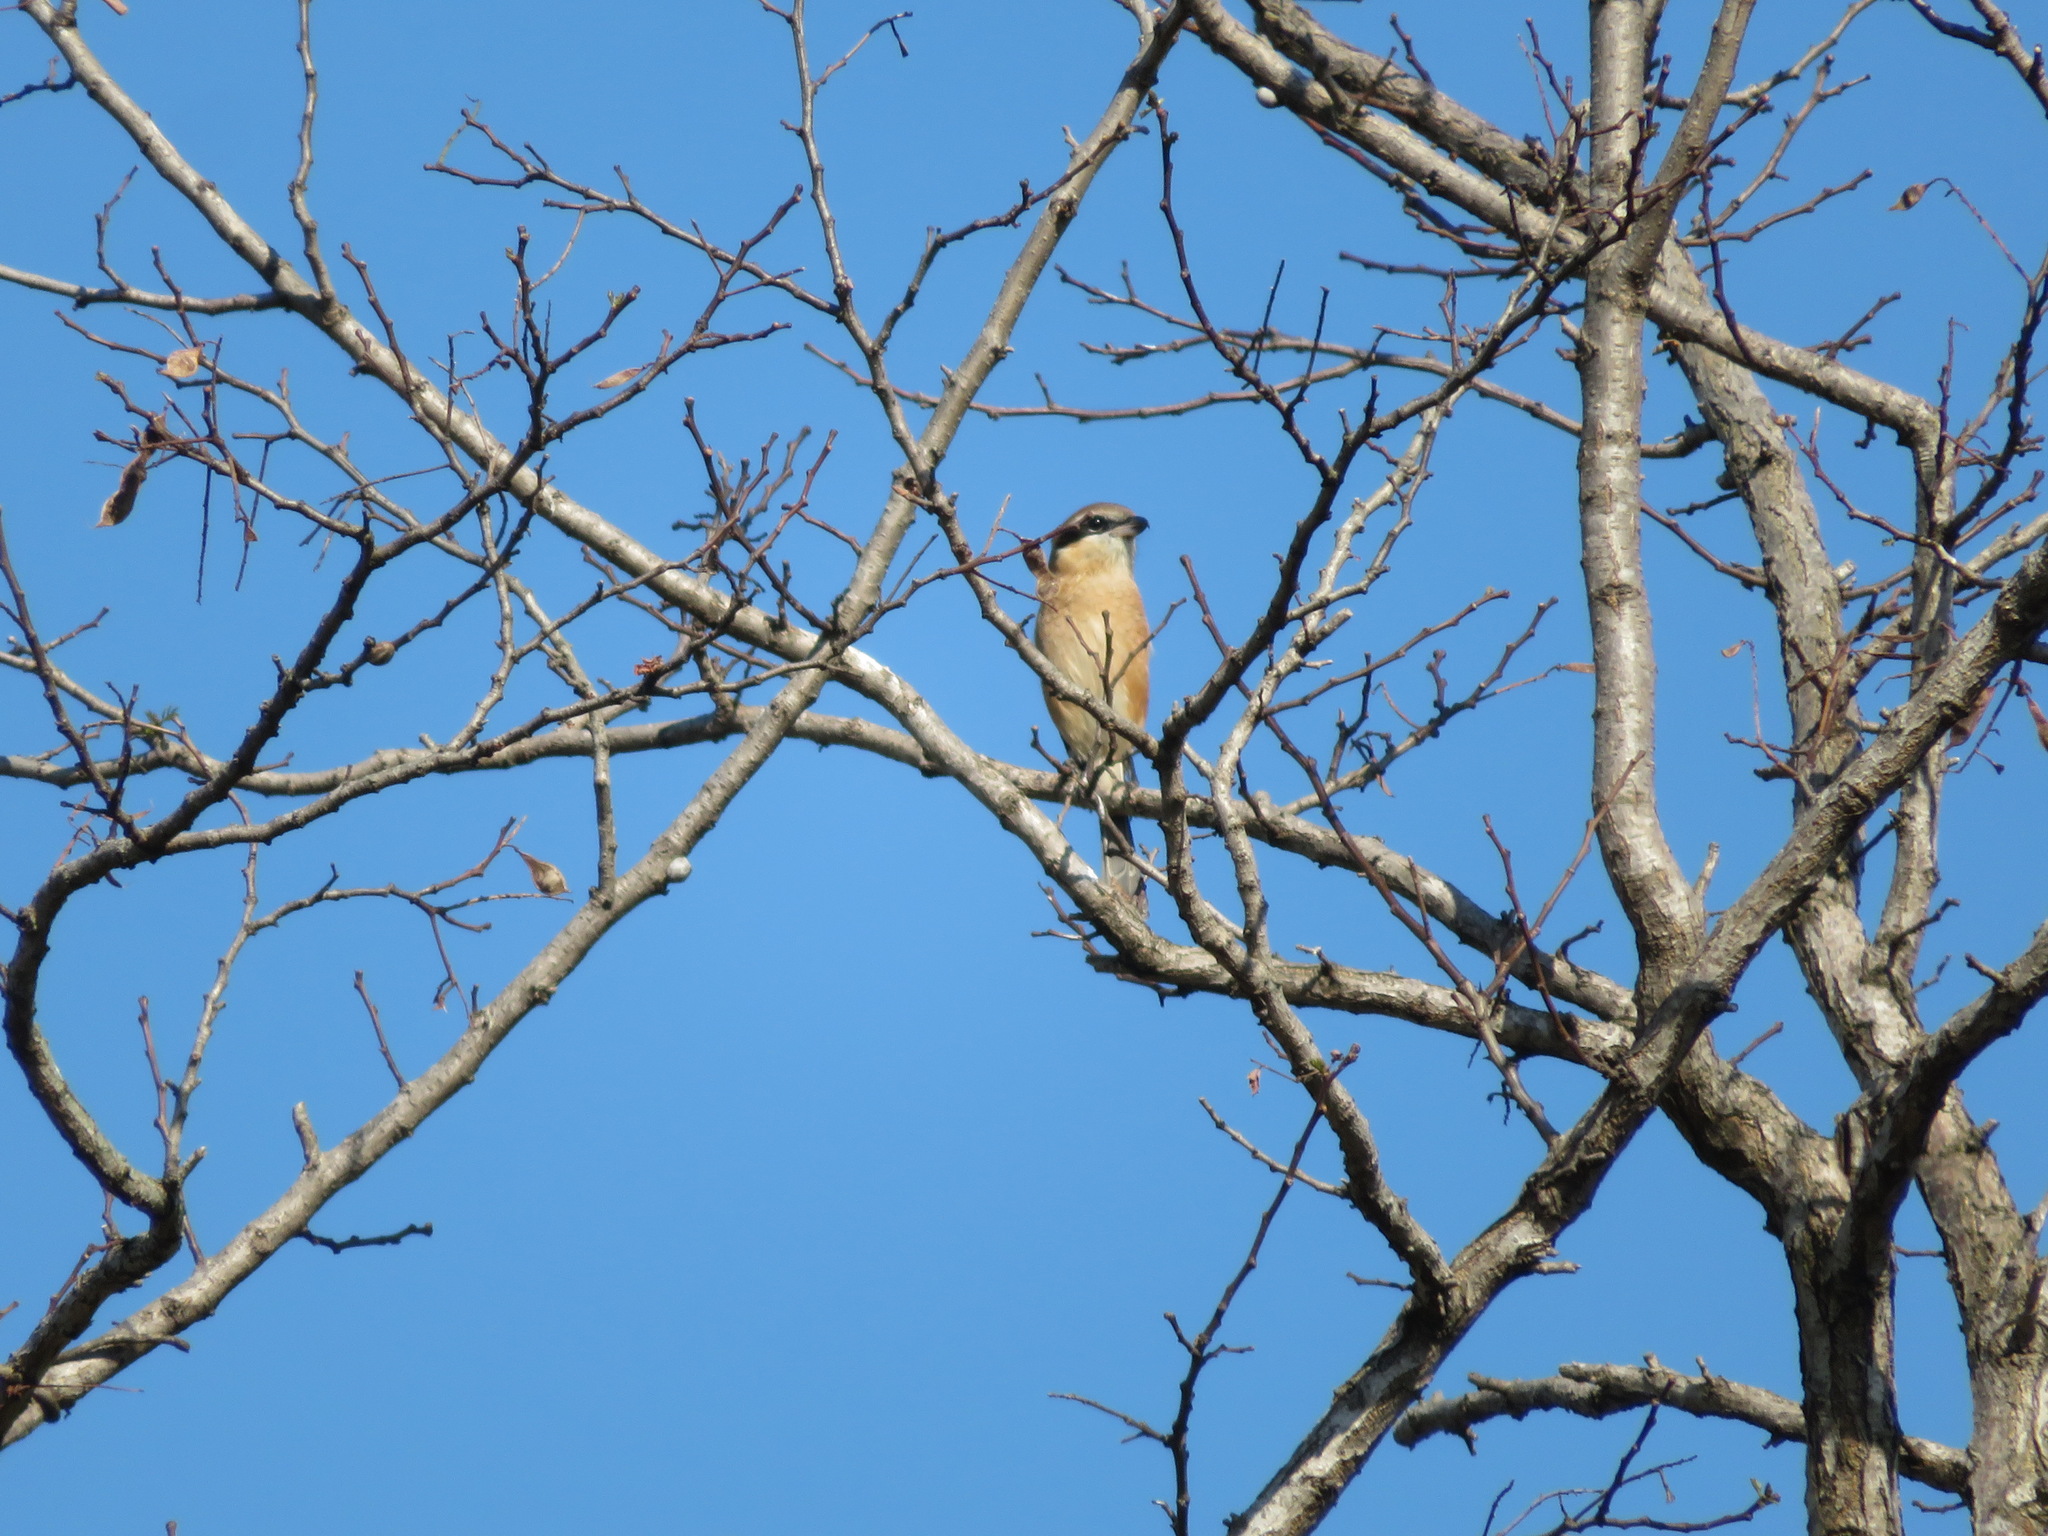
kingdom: Animalia
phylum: Chordata
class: Aves
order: Passeriformes
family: Laniidae
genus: Lanius
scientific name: Lanius bucephalus
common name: Bull-headed shrike
